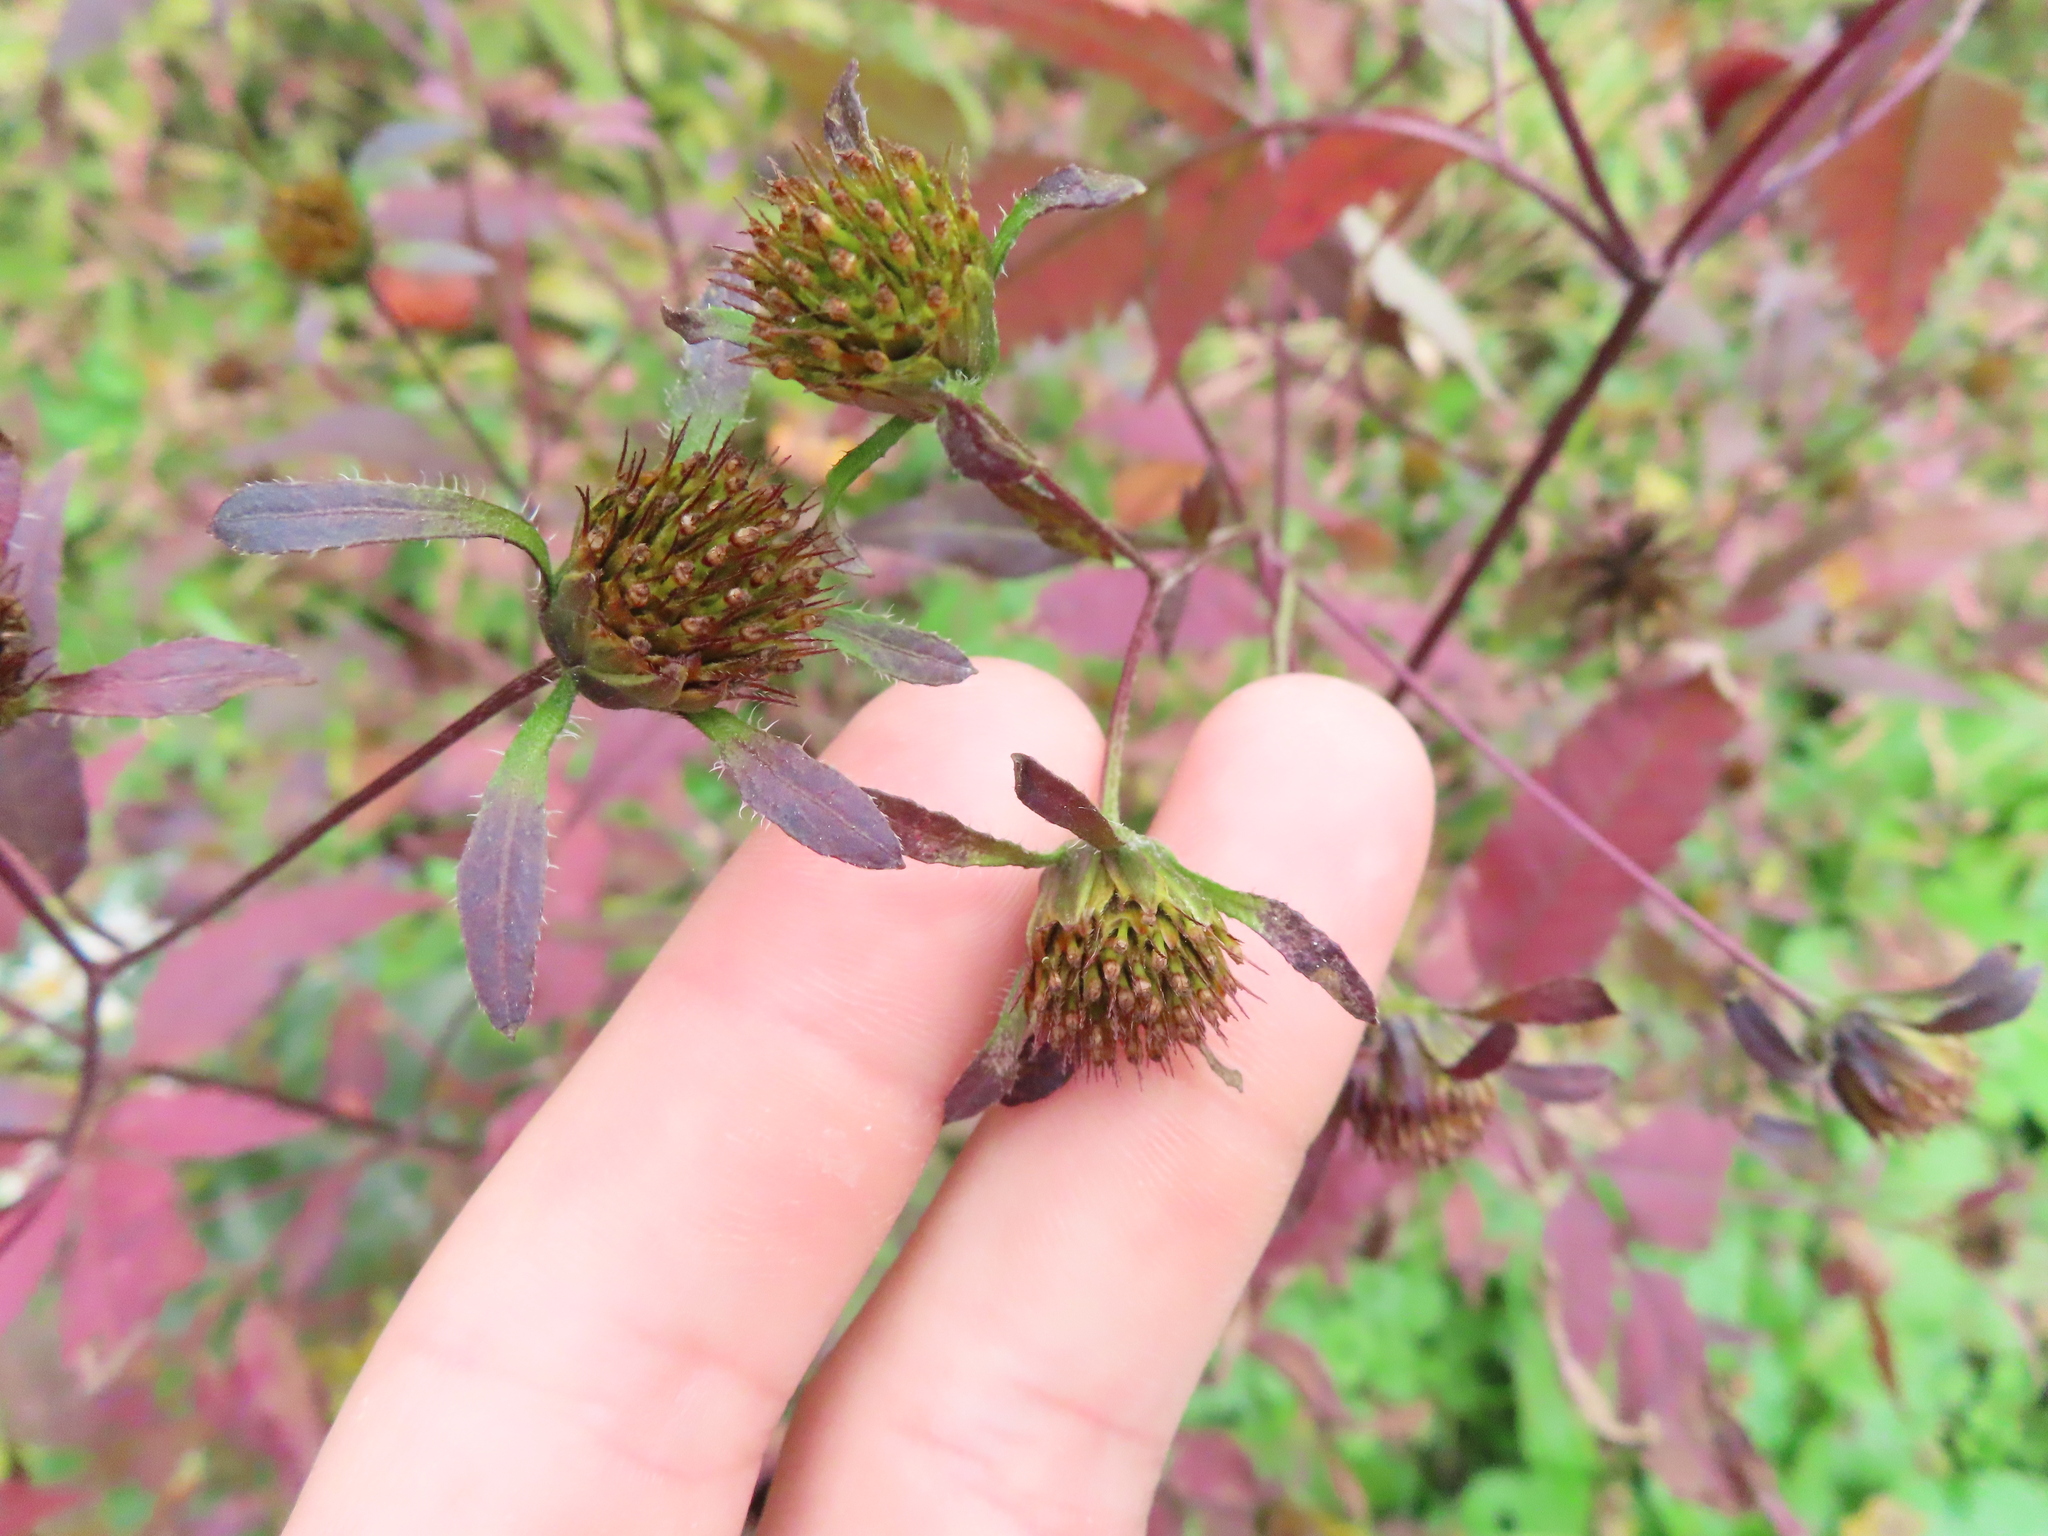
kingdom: Plantae
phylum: Tracheophyta
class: Magnoliopsida
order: Asterales
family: Asteraceae
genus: Bidens
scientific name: Bidens frondosa
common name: Beggarticks
